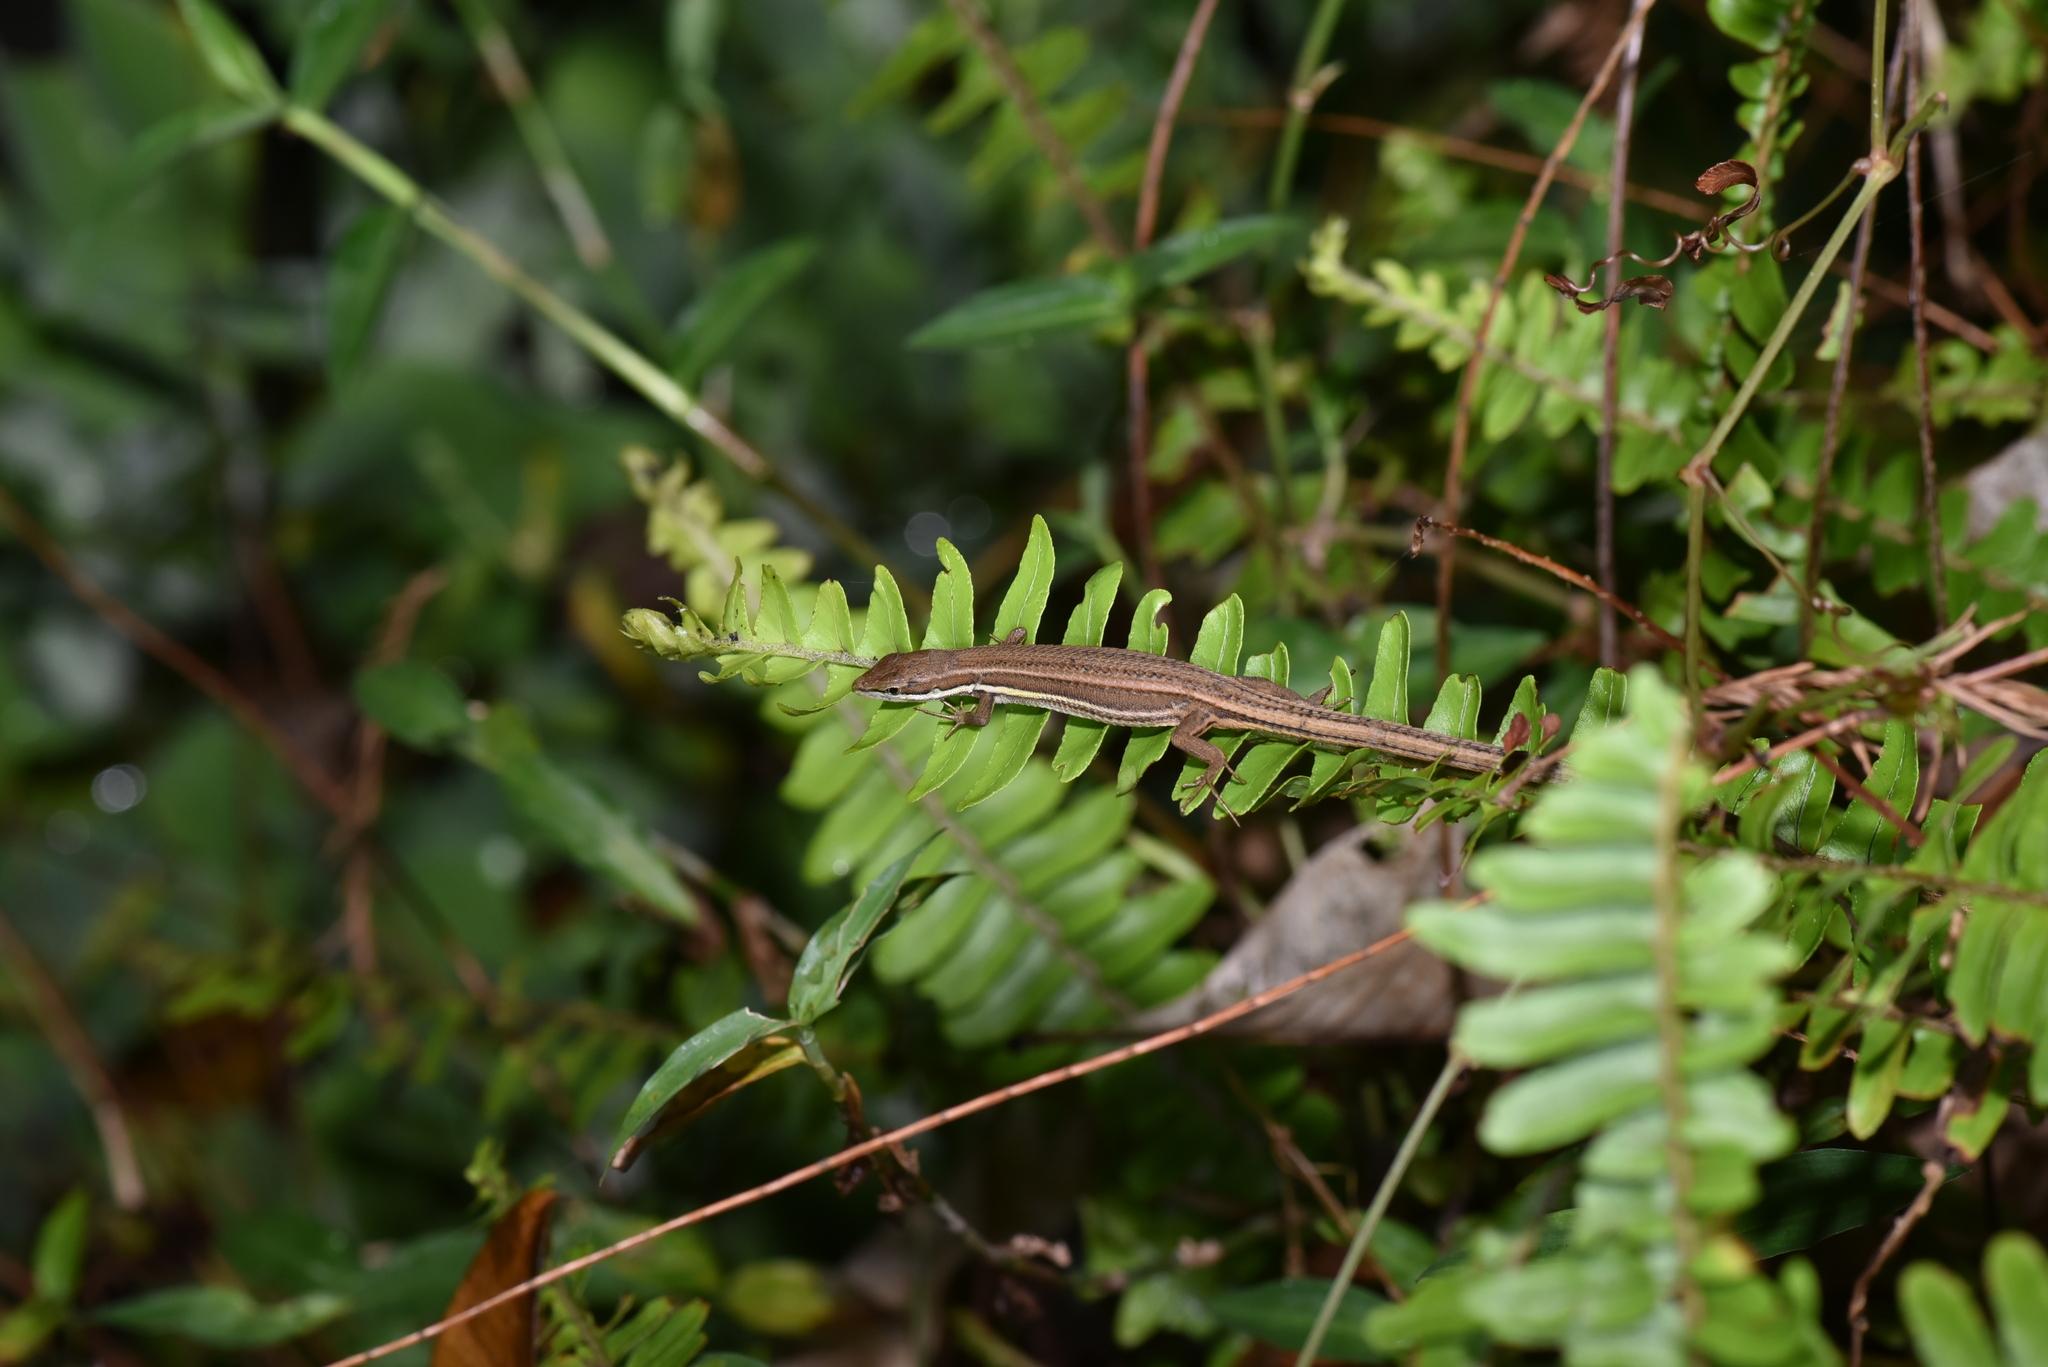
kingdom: Animalia
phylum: Chordata
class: Squamata
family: Lacertidae
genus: Takydromus
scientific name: Takydromus viridipunctatus
